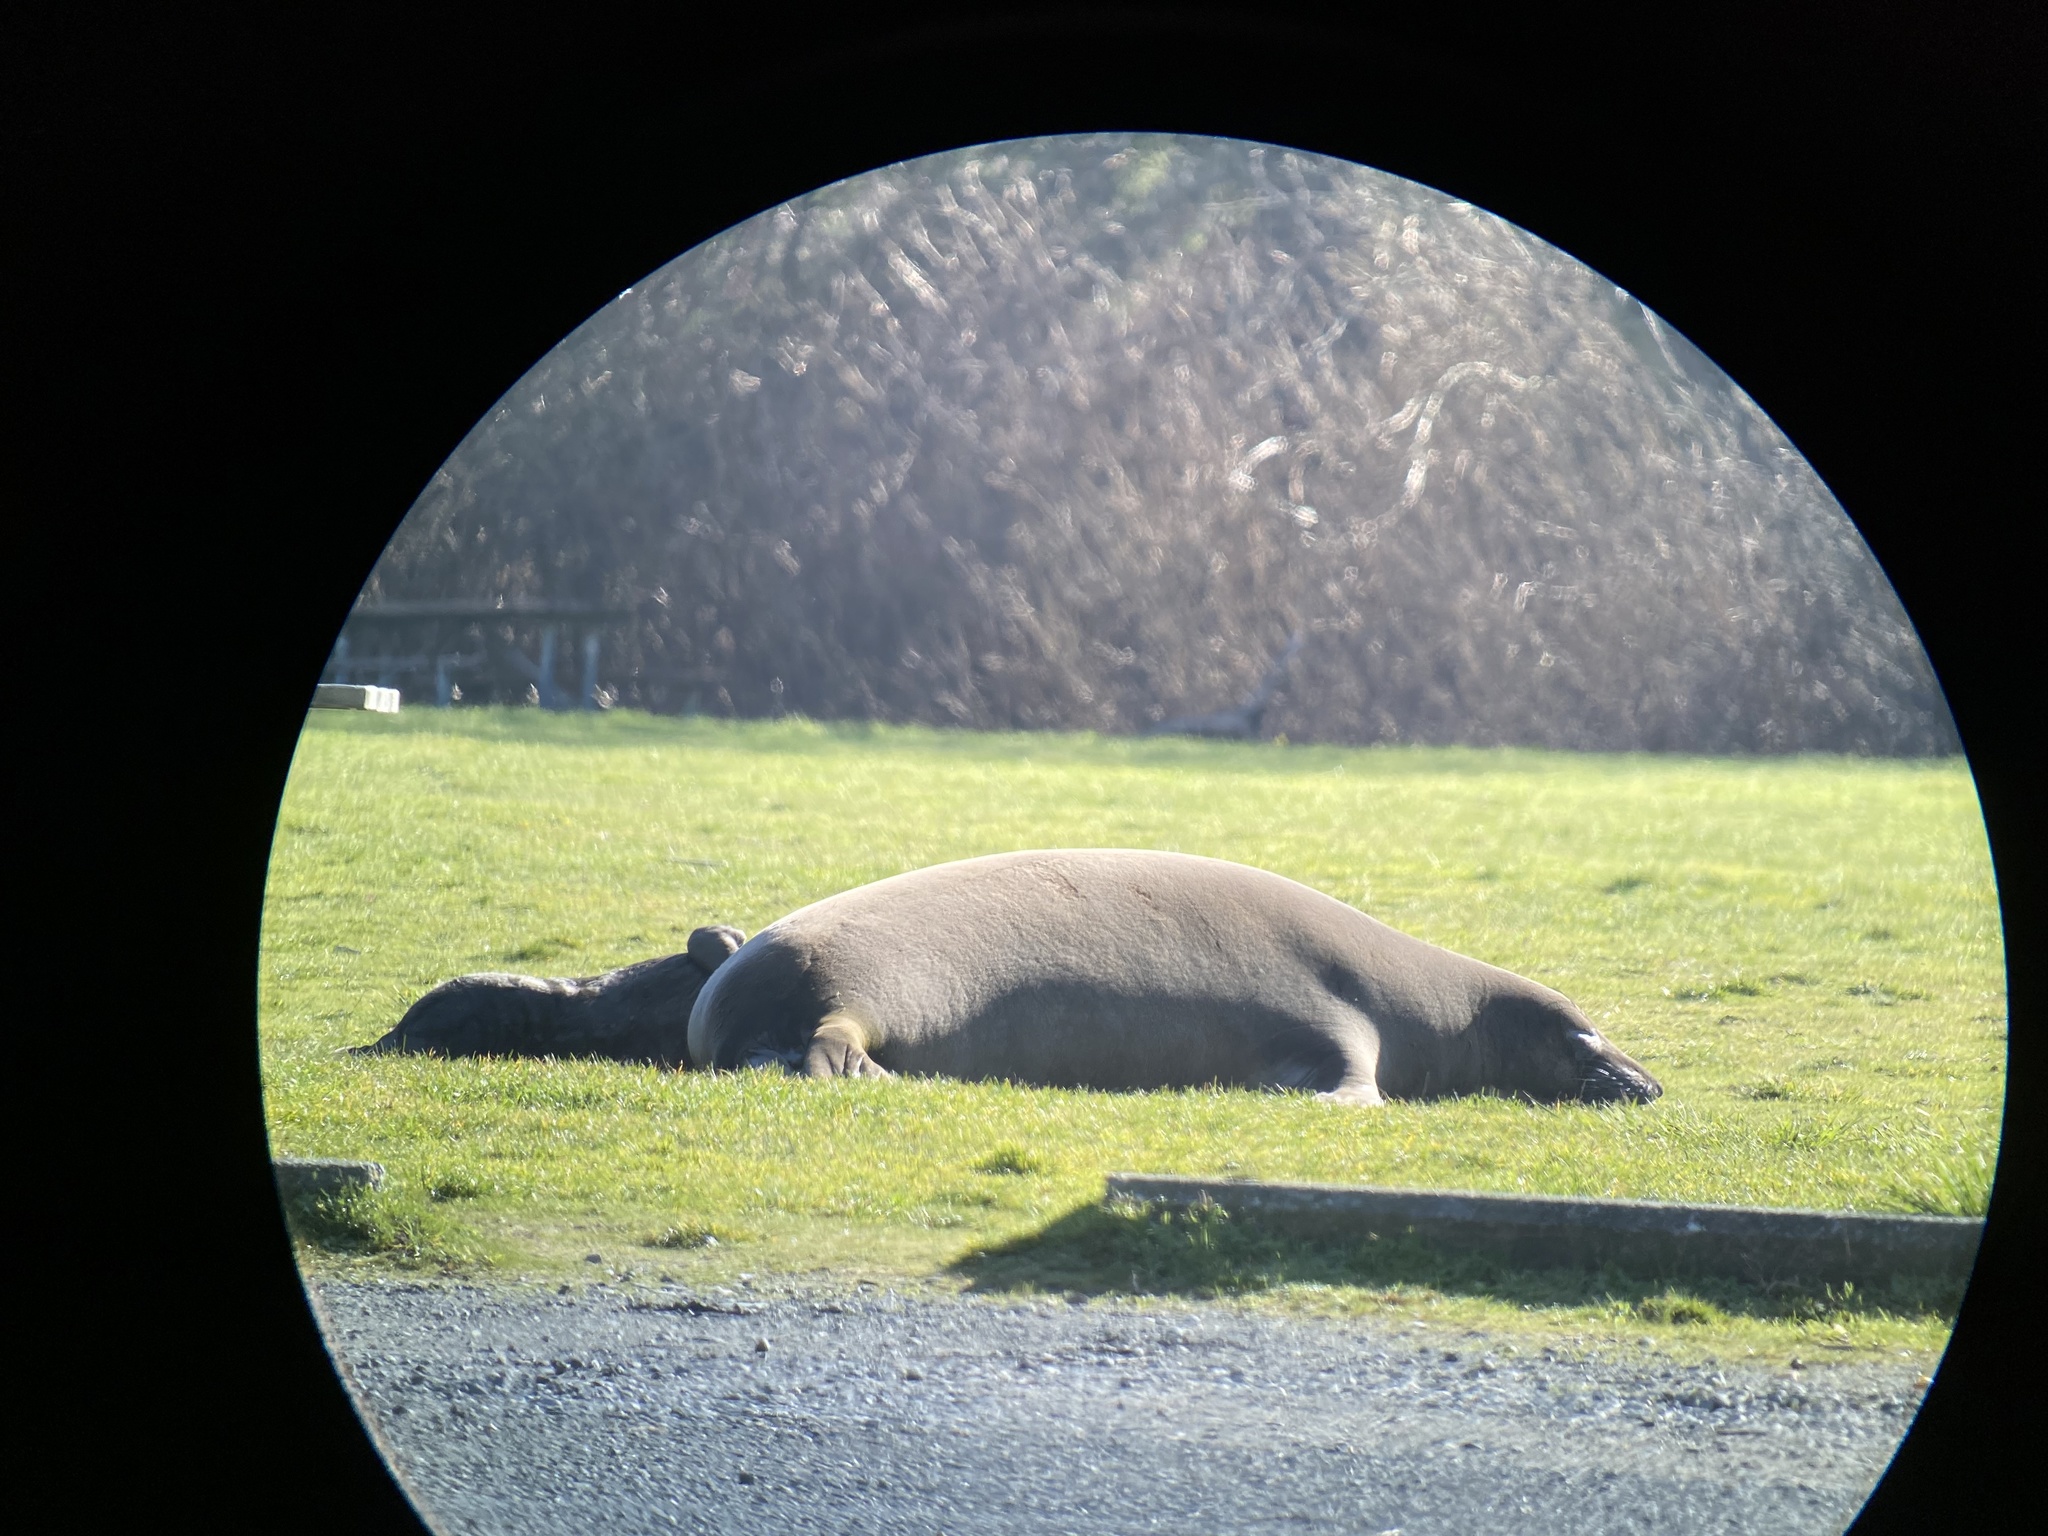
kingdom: Animalia
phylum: Chordata
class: Mammalia
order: Carnivora
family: Phocidae
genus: Mirounga
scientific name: Mirounga angustirostris
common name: Northern elephant seal
